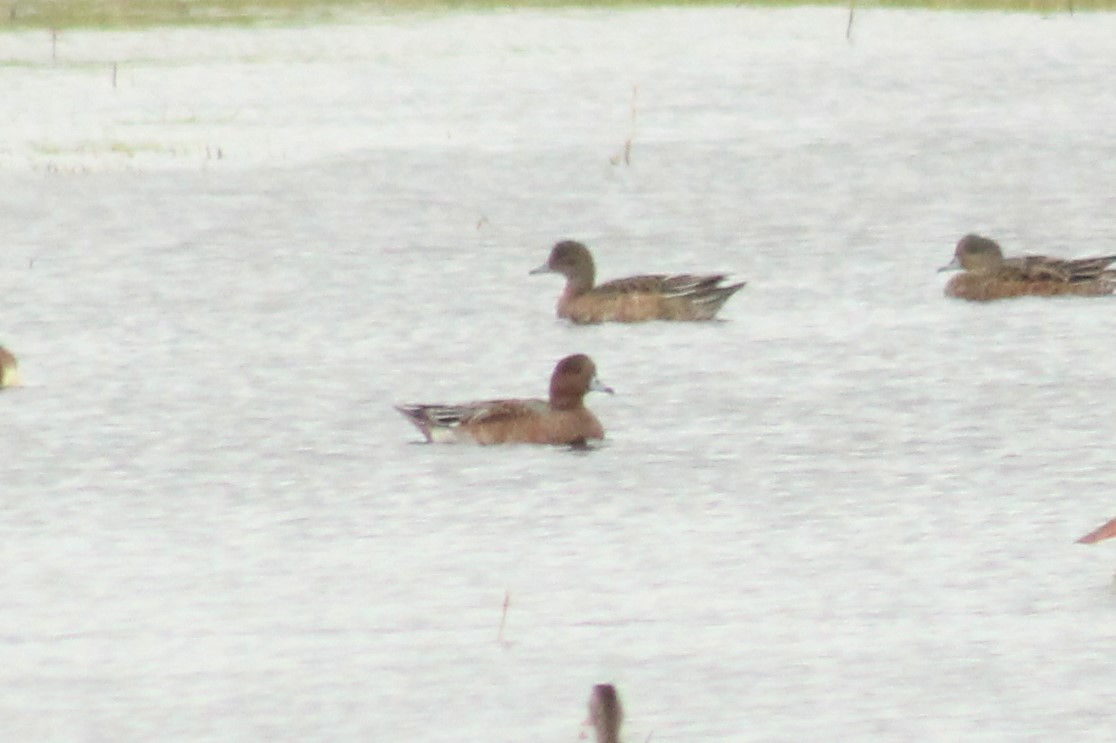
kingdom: Animalia
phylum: Chordata
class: Aves
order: Anseriformes
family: Anatidae
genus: Mareca
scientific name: Mareca penelope
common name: Eurasian wigeon
